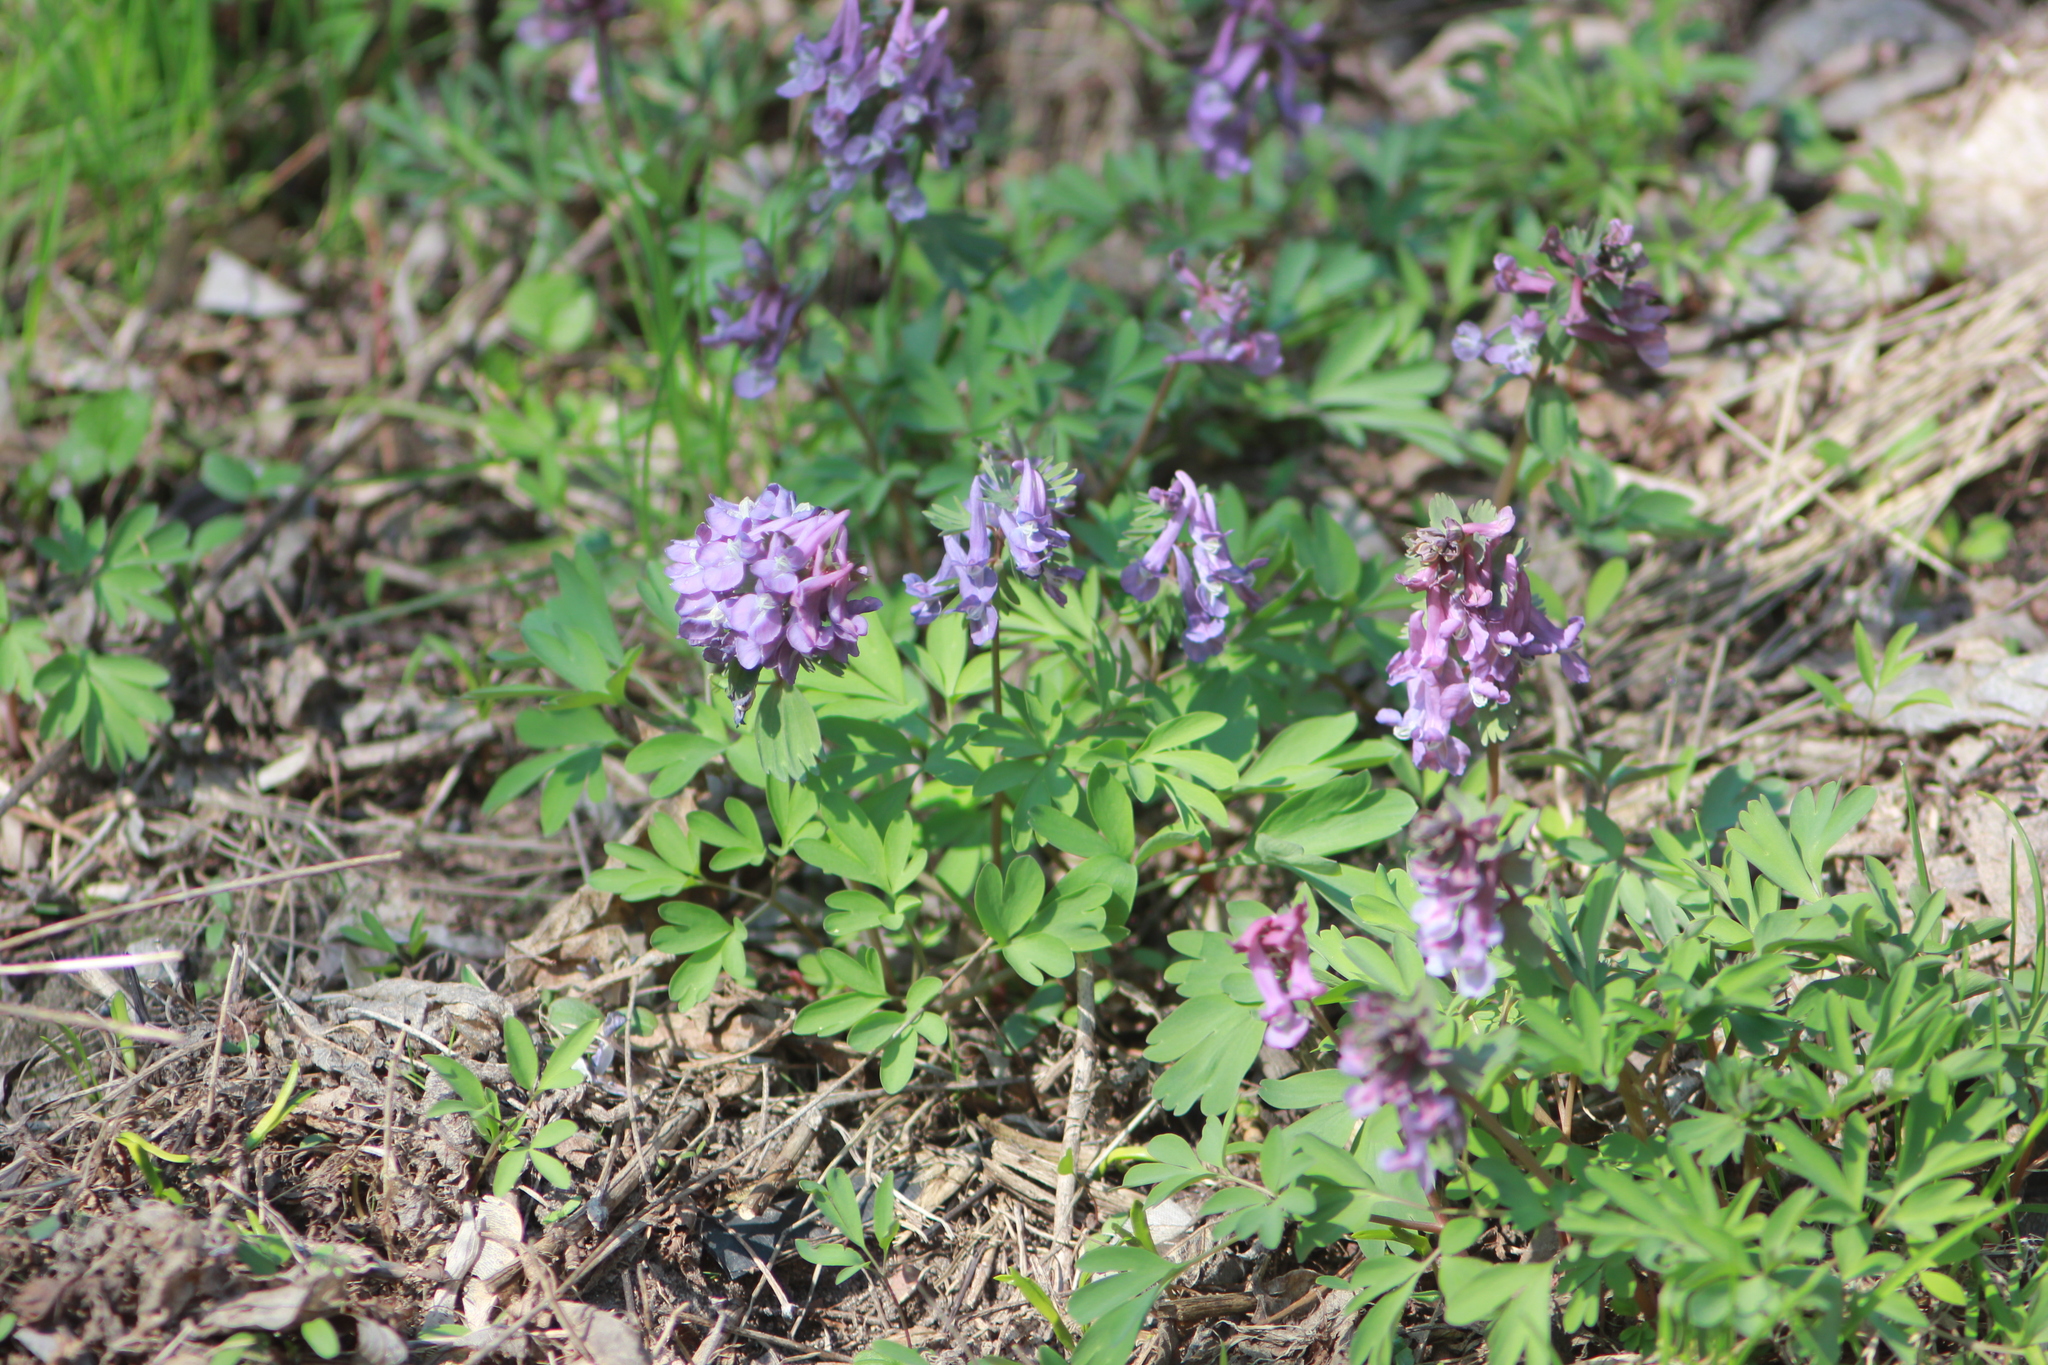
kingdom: Plantae
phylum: Tracheophyta
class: Magnoliopsida
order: Ranunculales
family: Papaveraceae
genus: Corydalis
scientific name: Corydalis solida
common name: Bird-in-a-bush
